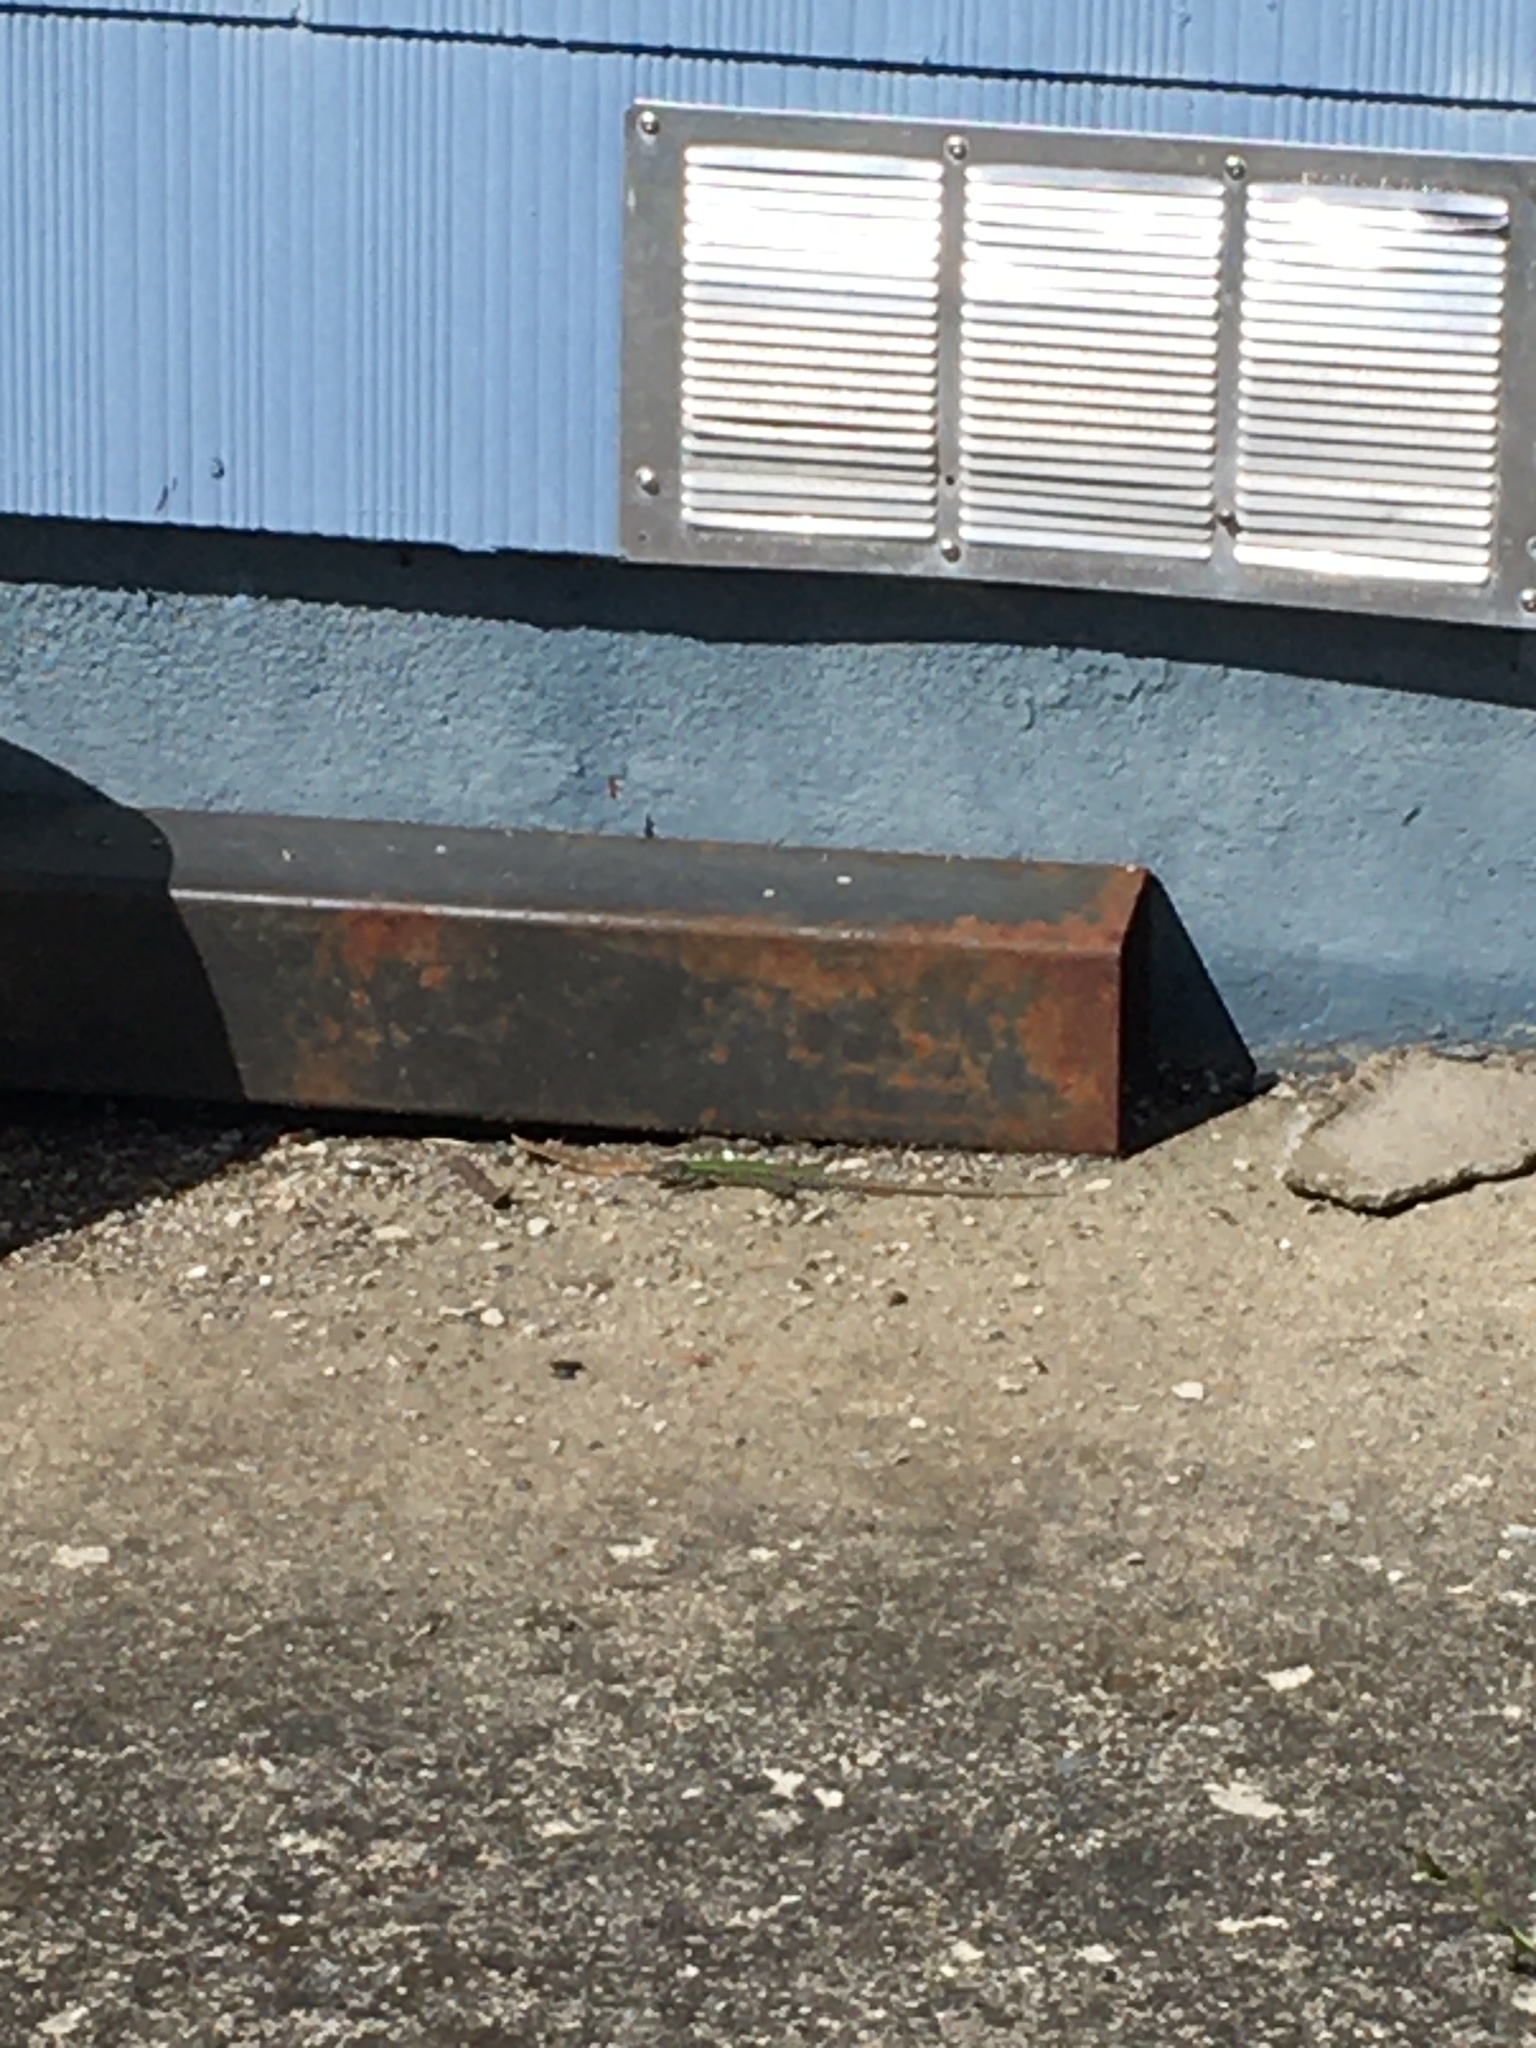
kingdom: Animalia
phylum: Chordata
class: Squamata
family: Lacertidae
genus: Podarcis
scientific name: Podarcis muralis
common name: Common wall lizard
